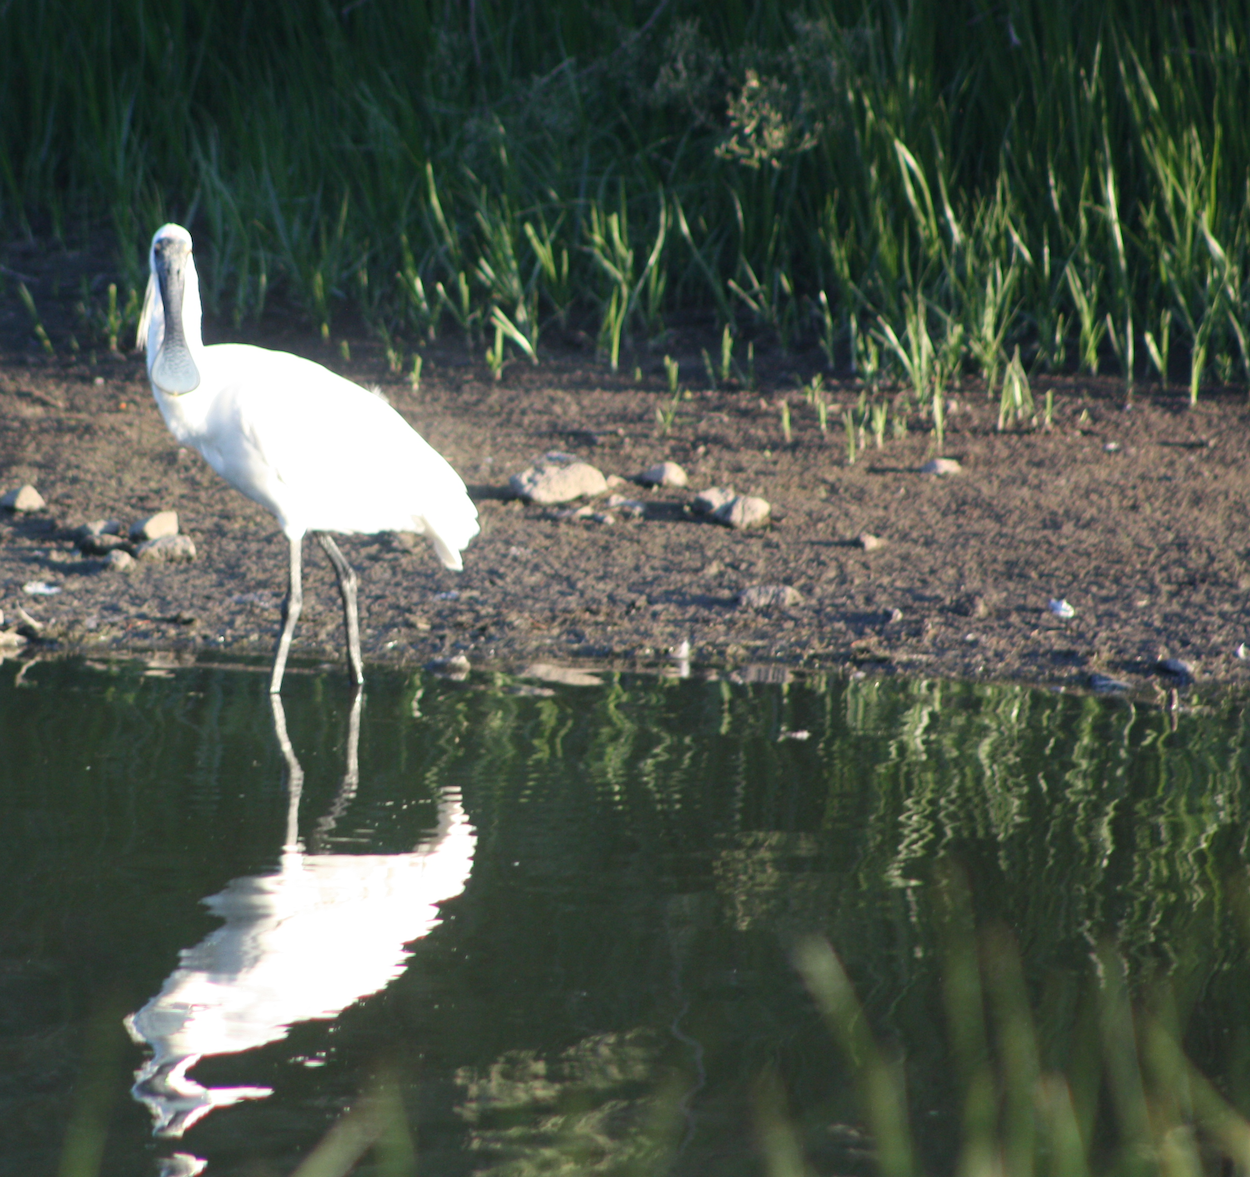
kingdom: Animalia
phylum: Chordata
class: Aves
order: Pelecaniformes
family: Threskiornithidae
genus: Platalea
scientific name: Platalea regia
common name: Royal spoonbill
